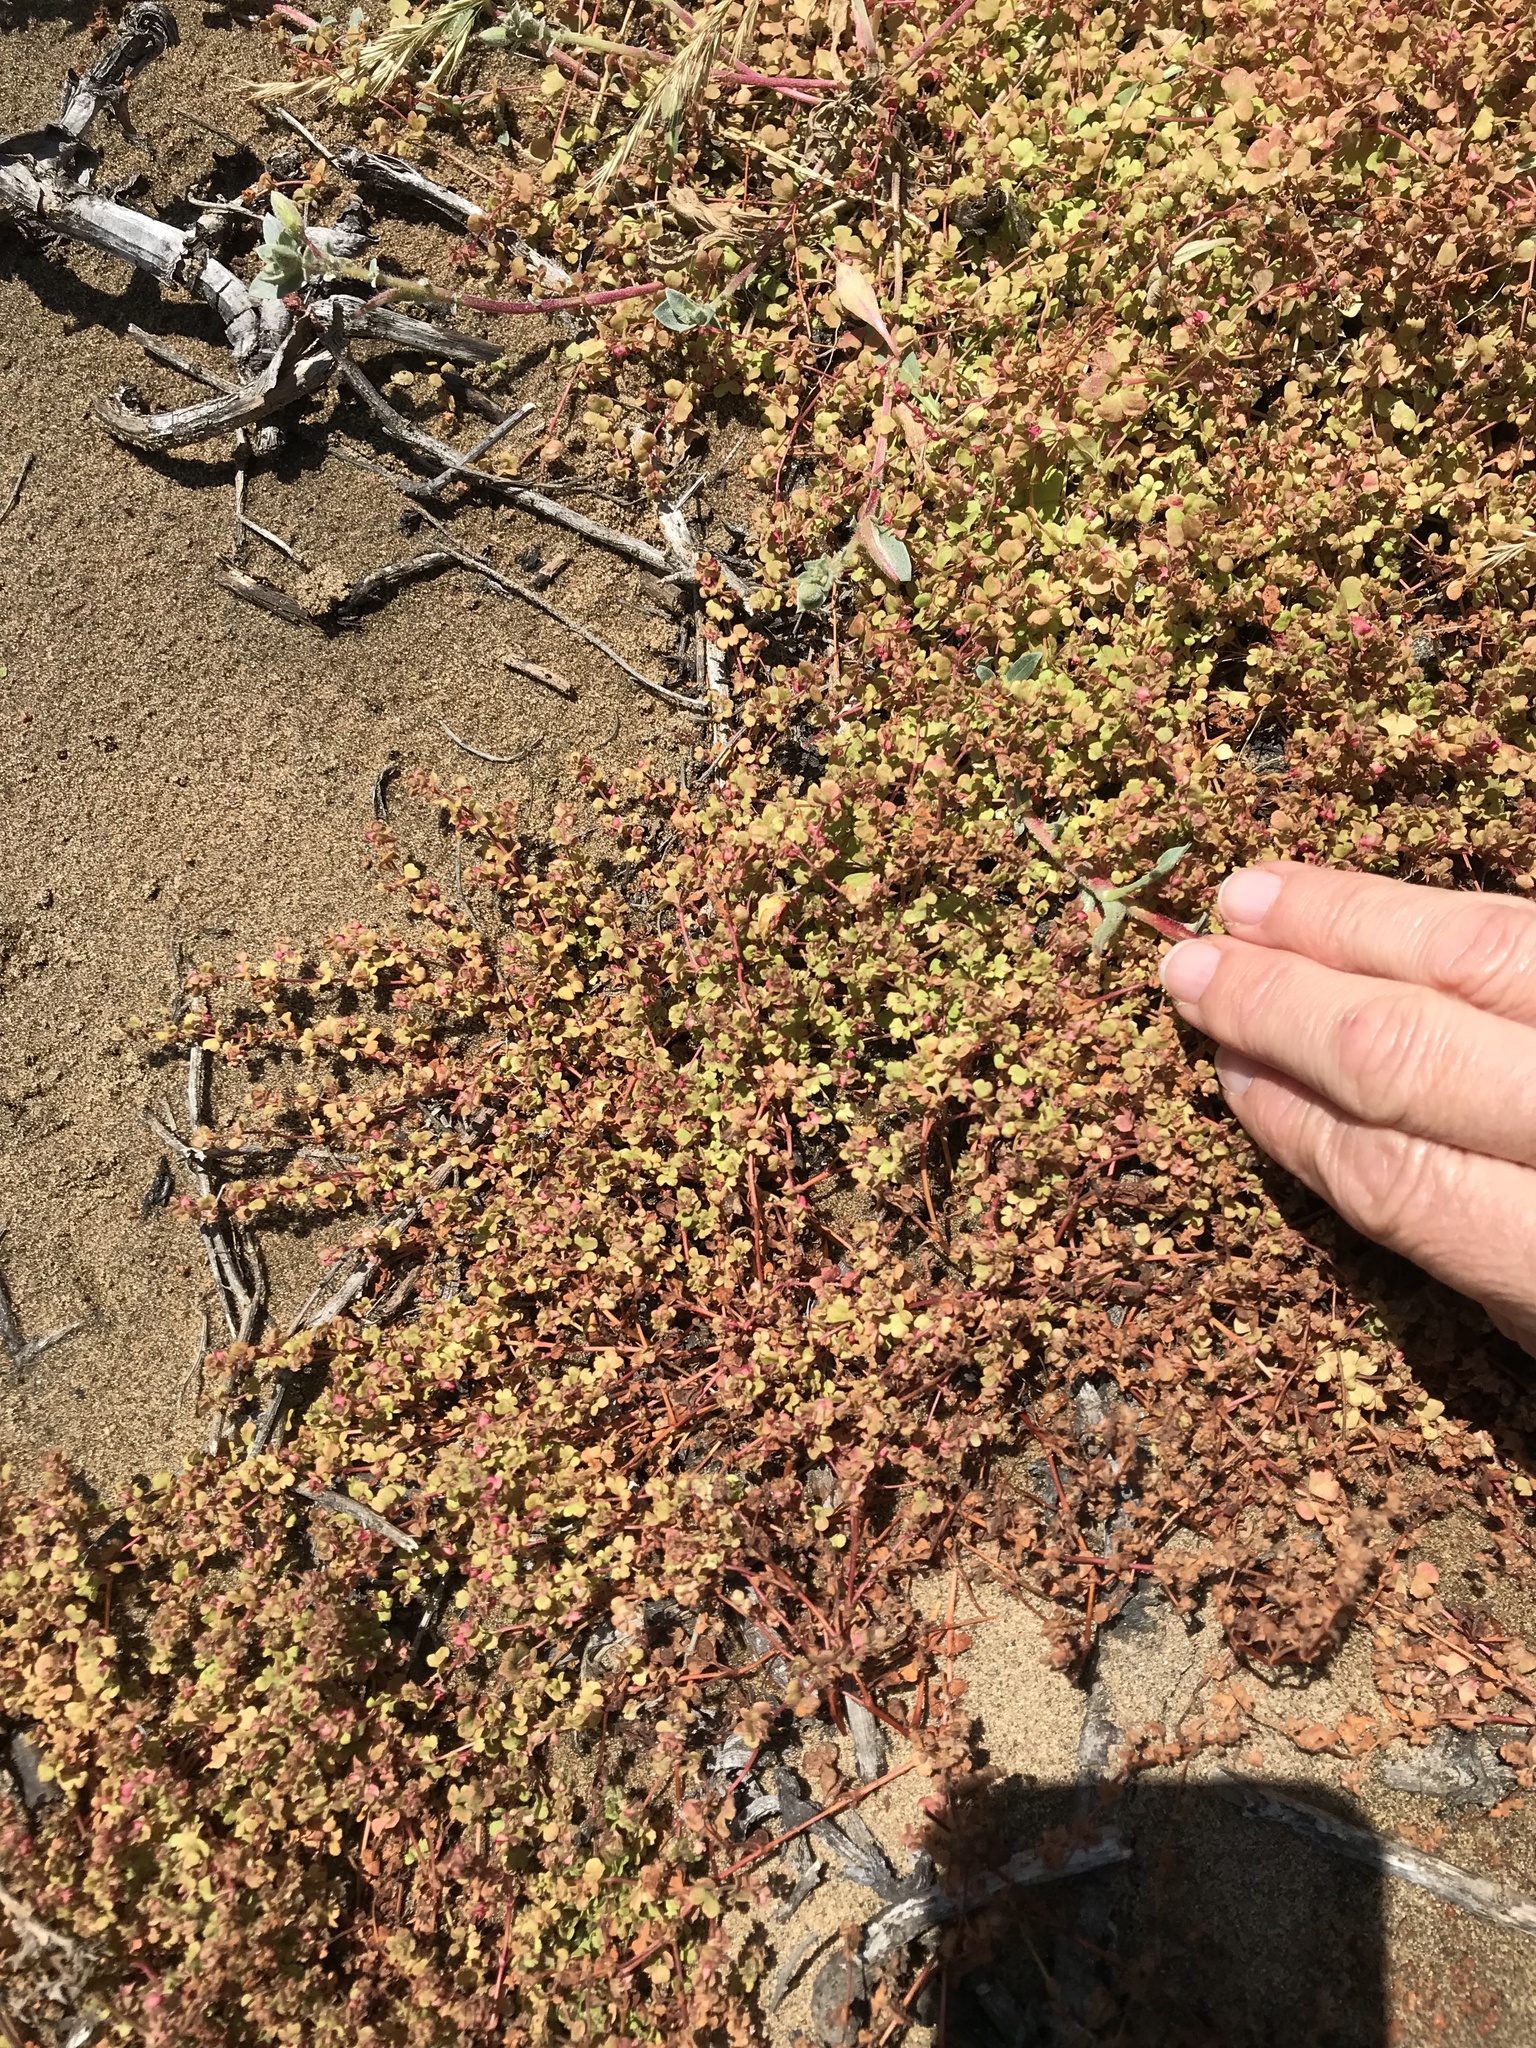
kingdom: Plantae
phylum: Tracheophyta
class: Magnoliopsida
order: Caryophyllales
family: Polygonaceae
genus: Pterostegia
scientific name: Pterostegia drymarioides
